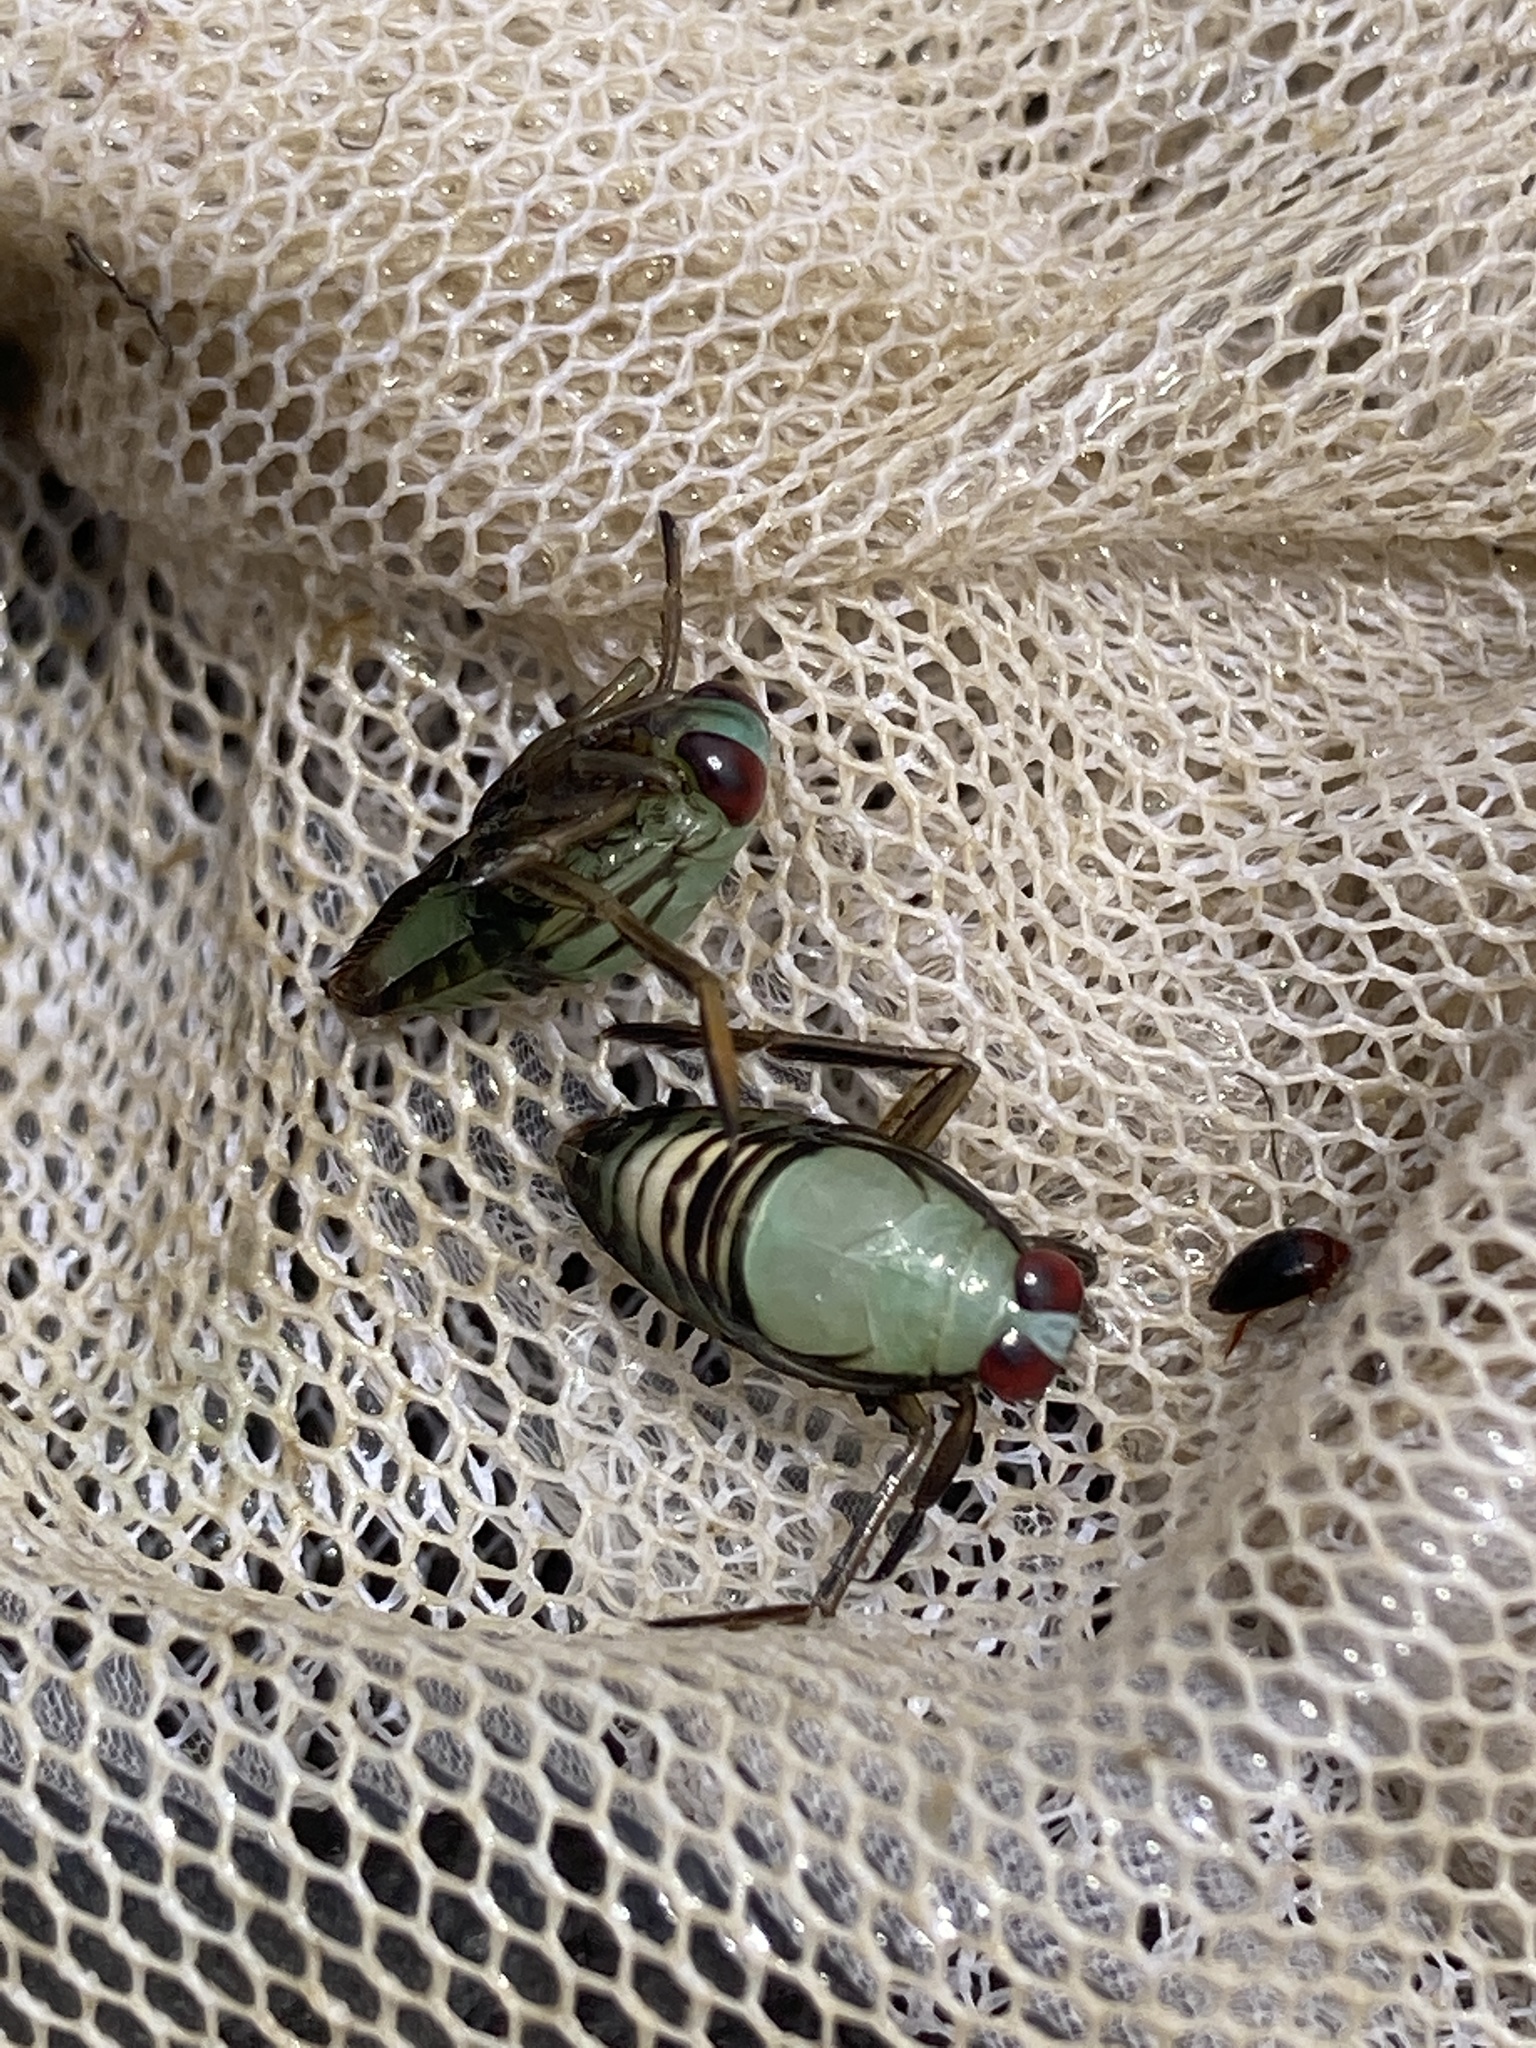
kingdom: Animalia
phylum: Arthropoda
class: Insecta
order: Hemiptera
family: Notonectidae
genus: Notonecta
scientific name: Notonecta
